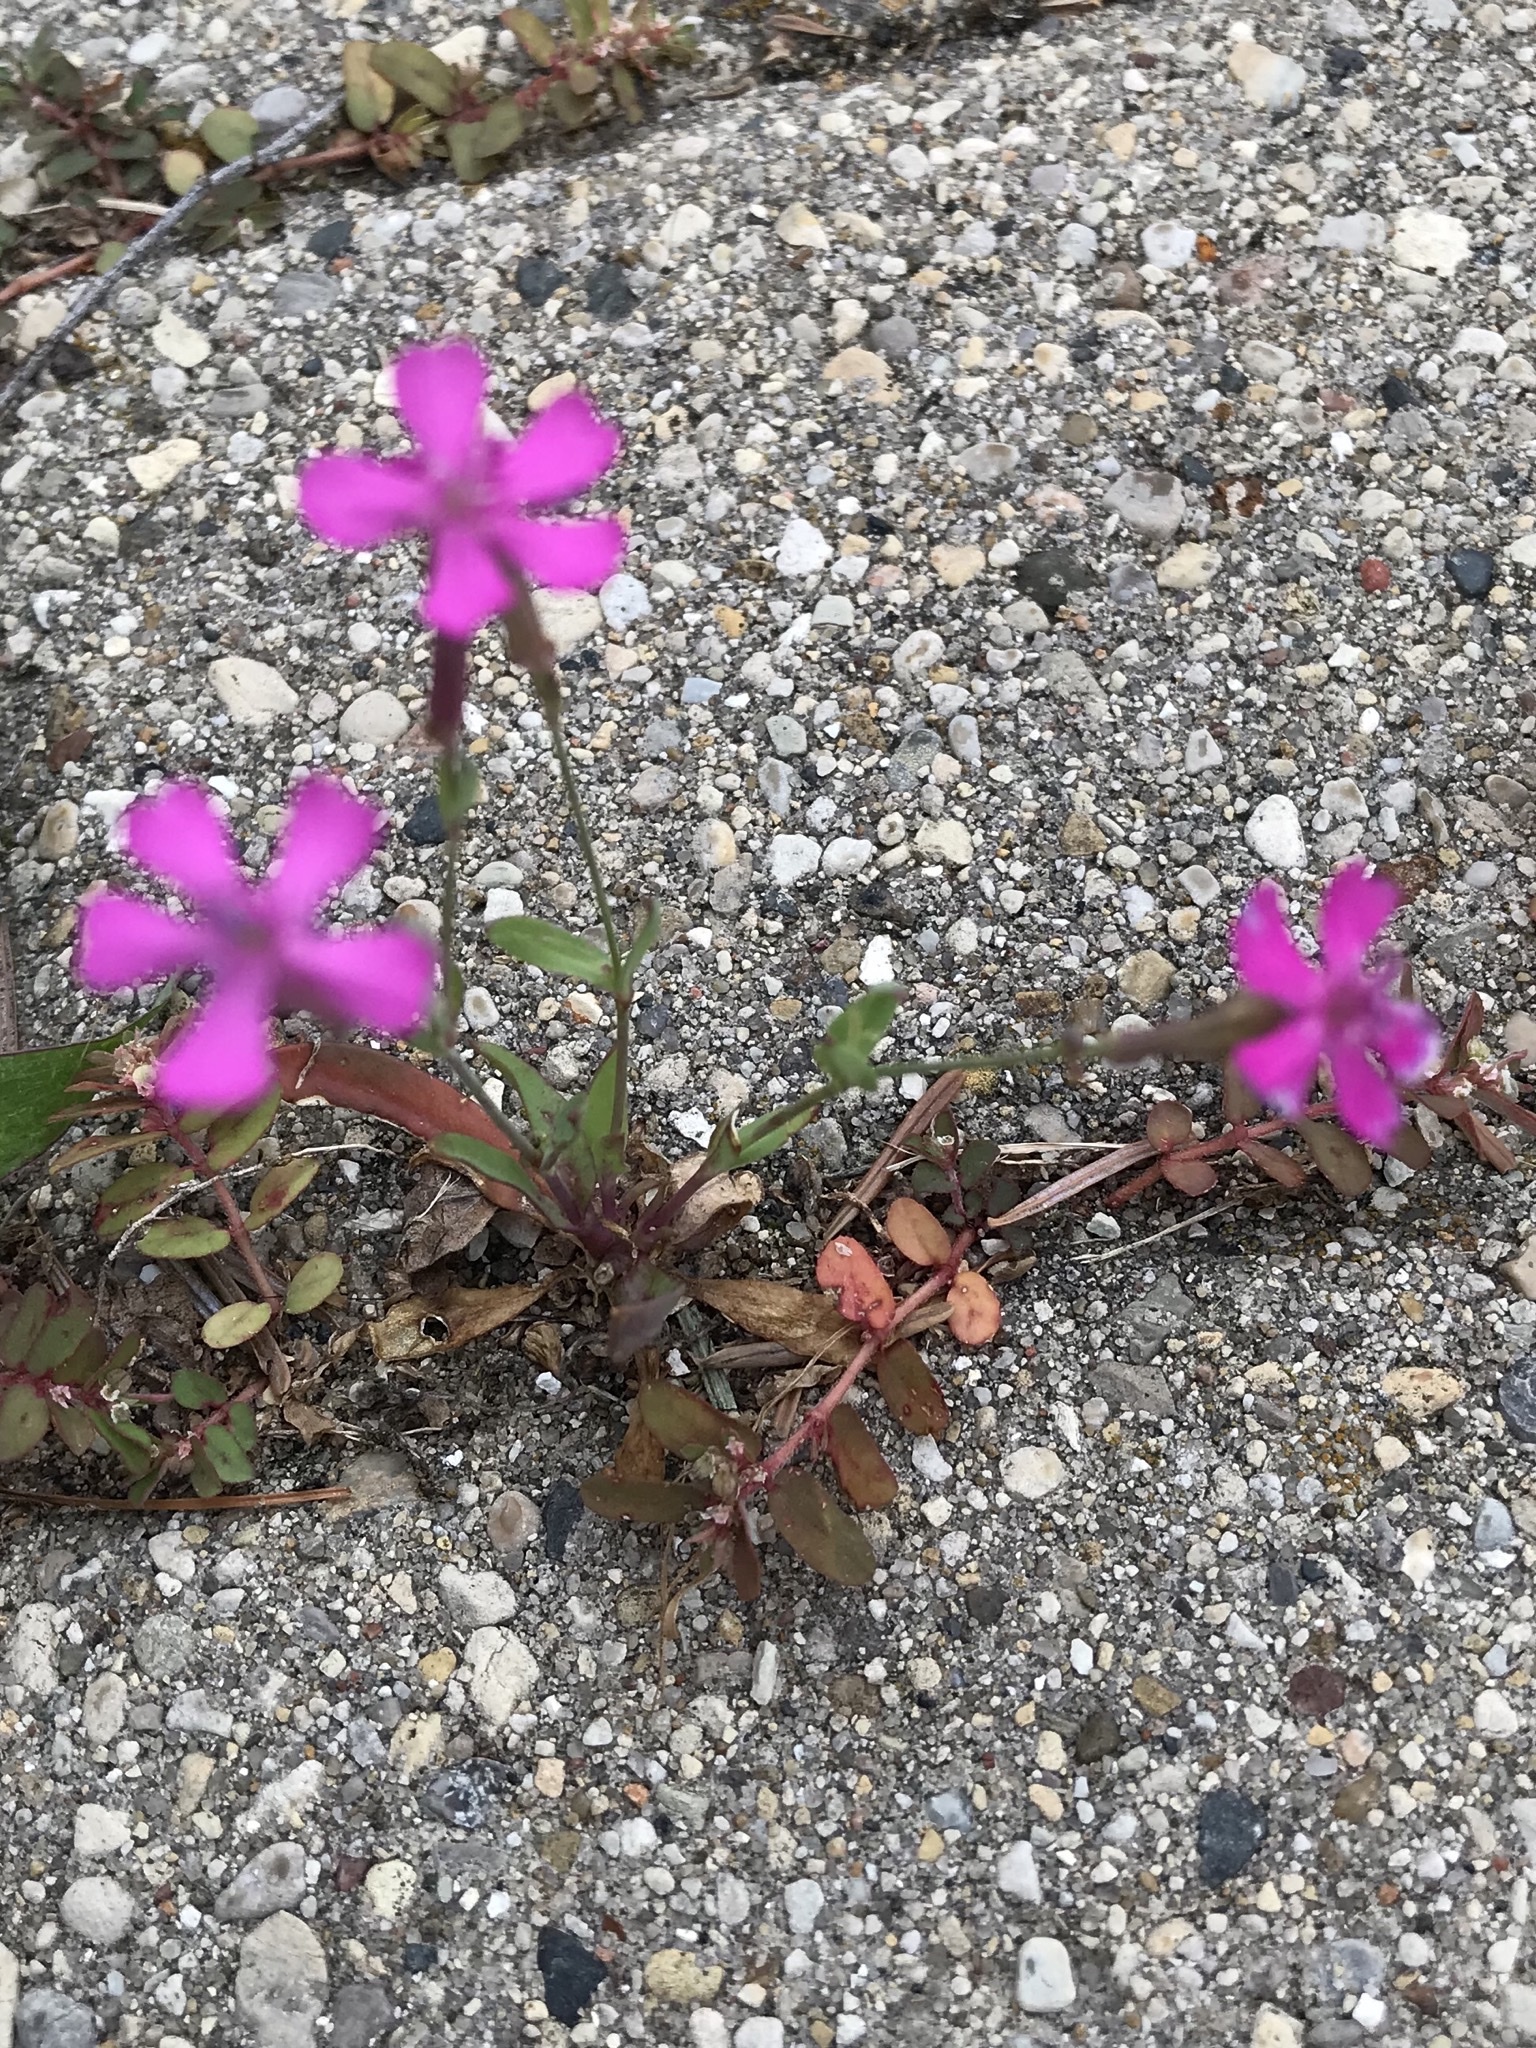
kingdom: Plantae
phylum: Tracheophyta
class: Magnoliopsida
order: Caryophyllales
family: Caryophyllaceae
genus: Atocion
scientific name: Atocion armeria
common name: Sweet william catchfly
